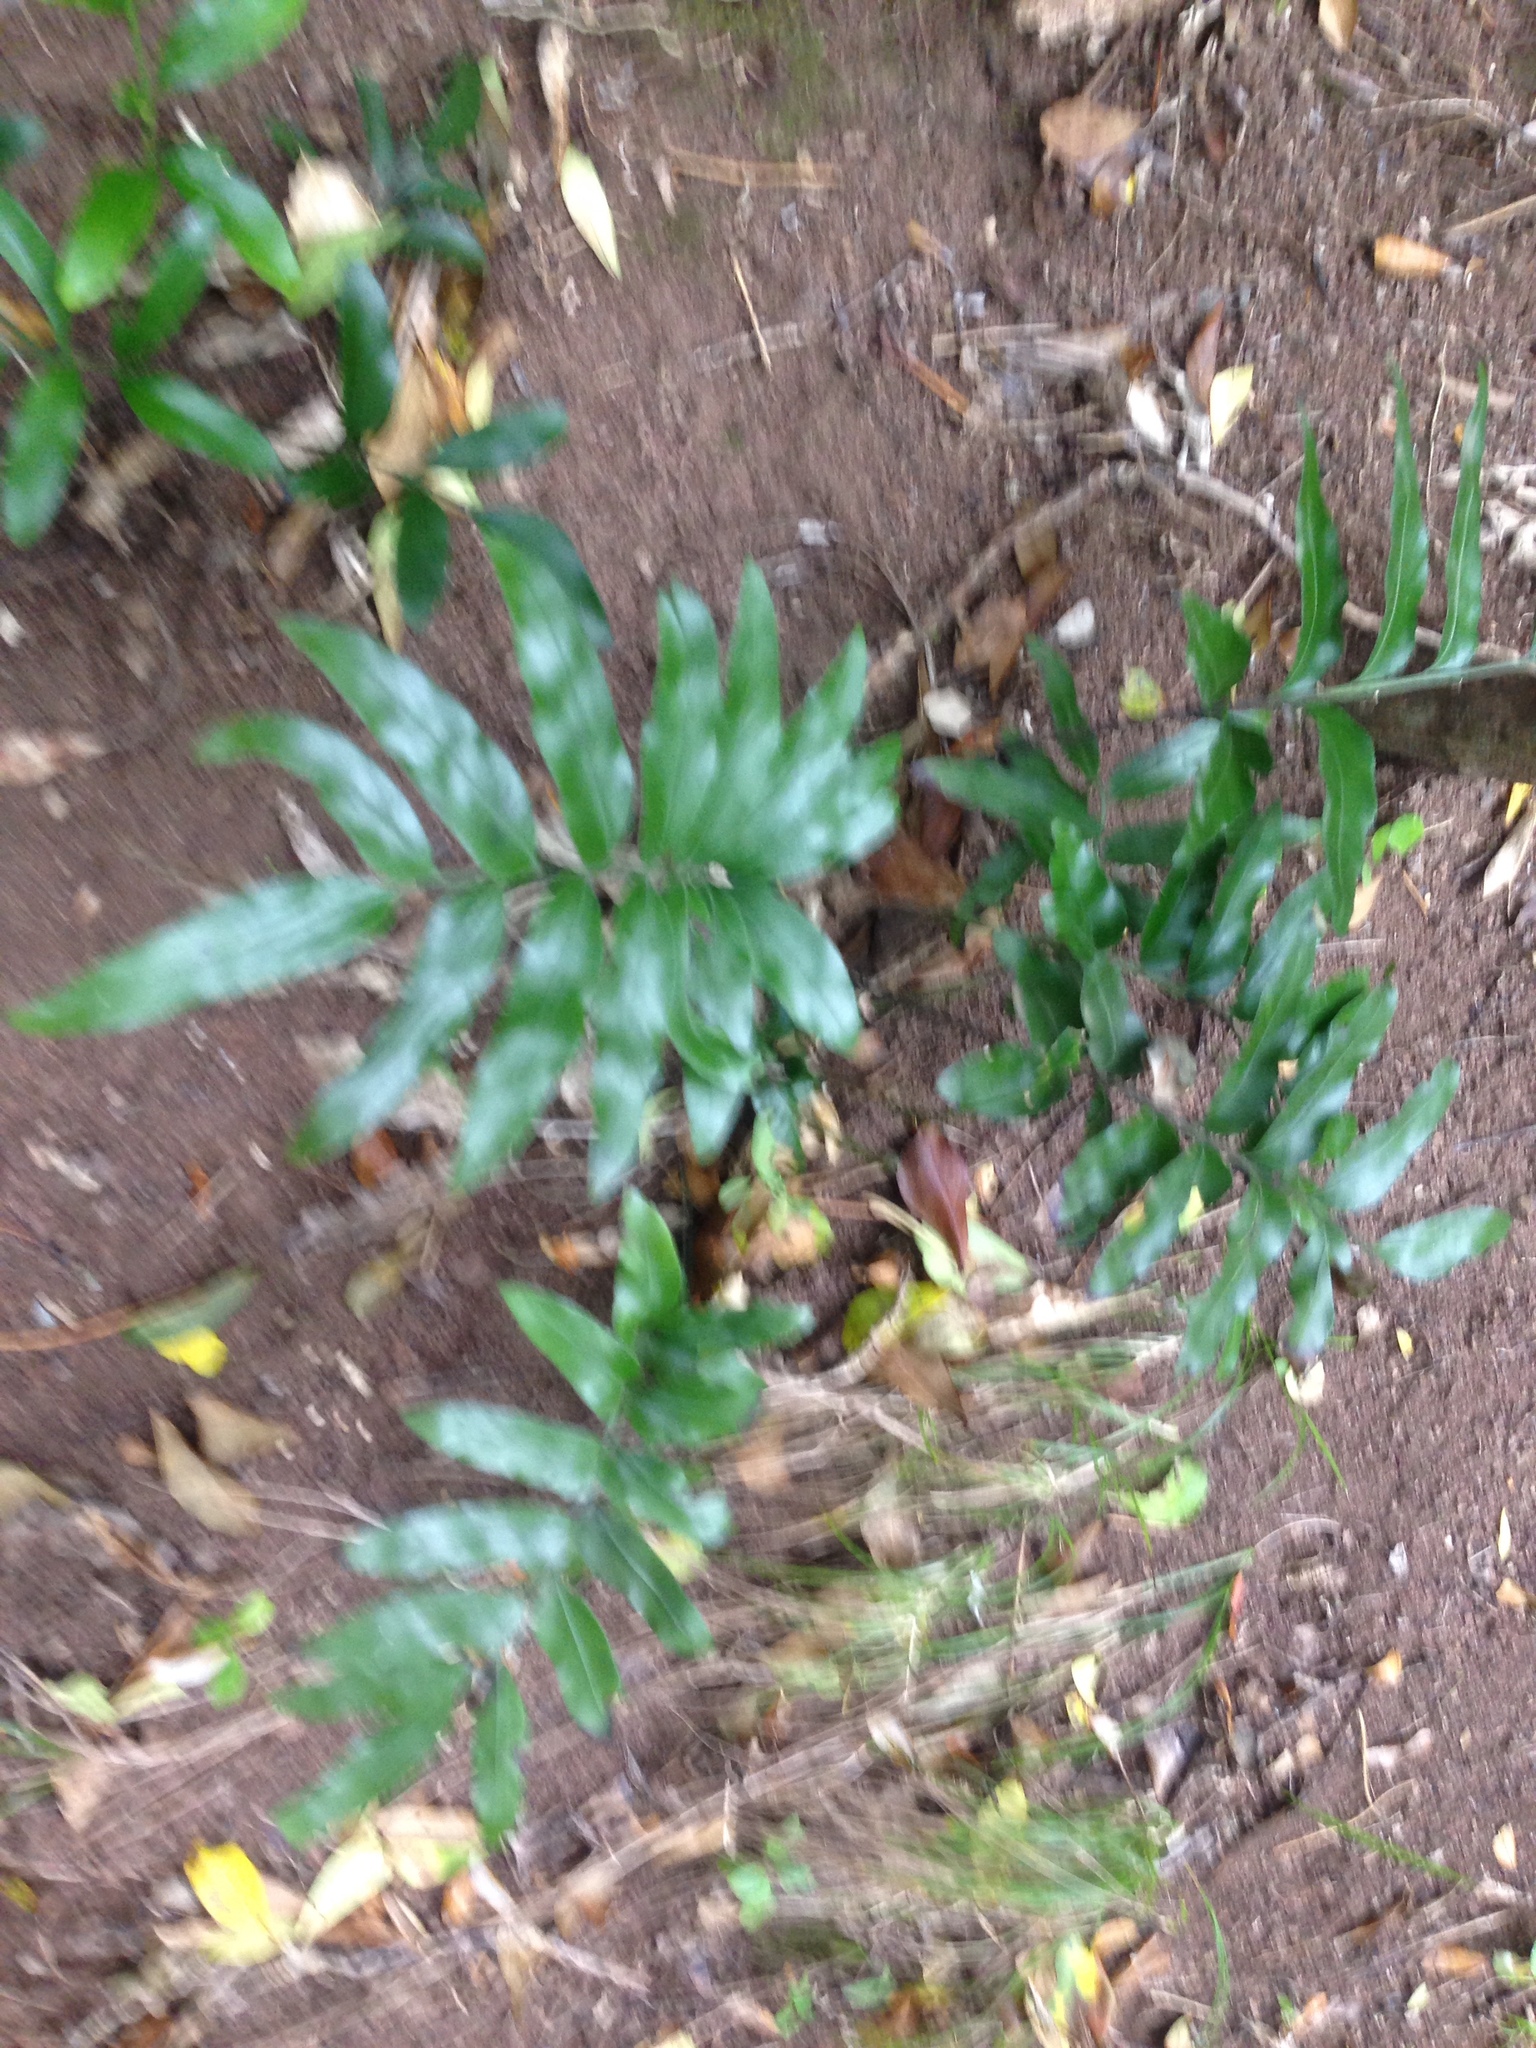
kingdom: Plantae
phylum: Tracheophyta
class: Polypodiopsida
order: Polypodiales
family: Aspleniaceae
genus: Asplenium
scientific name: Asplenium oblongifolium
